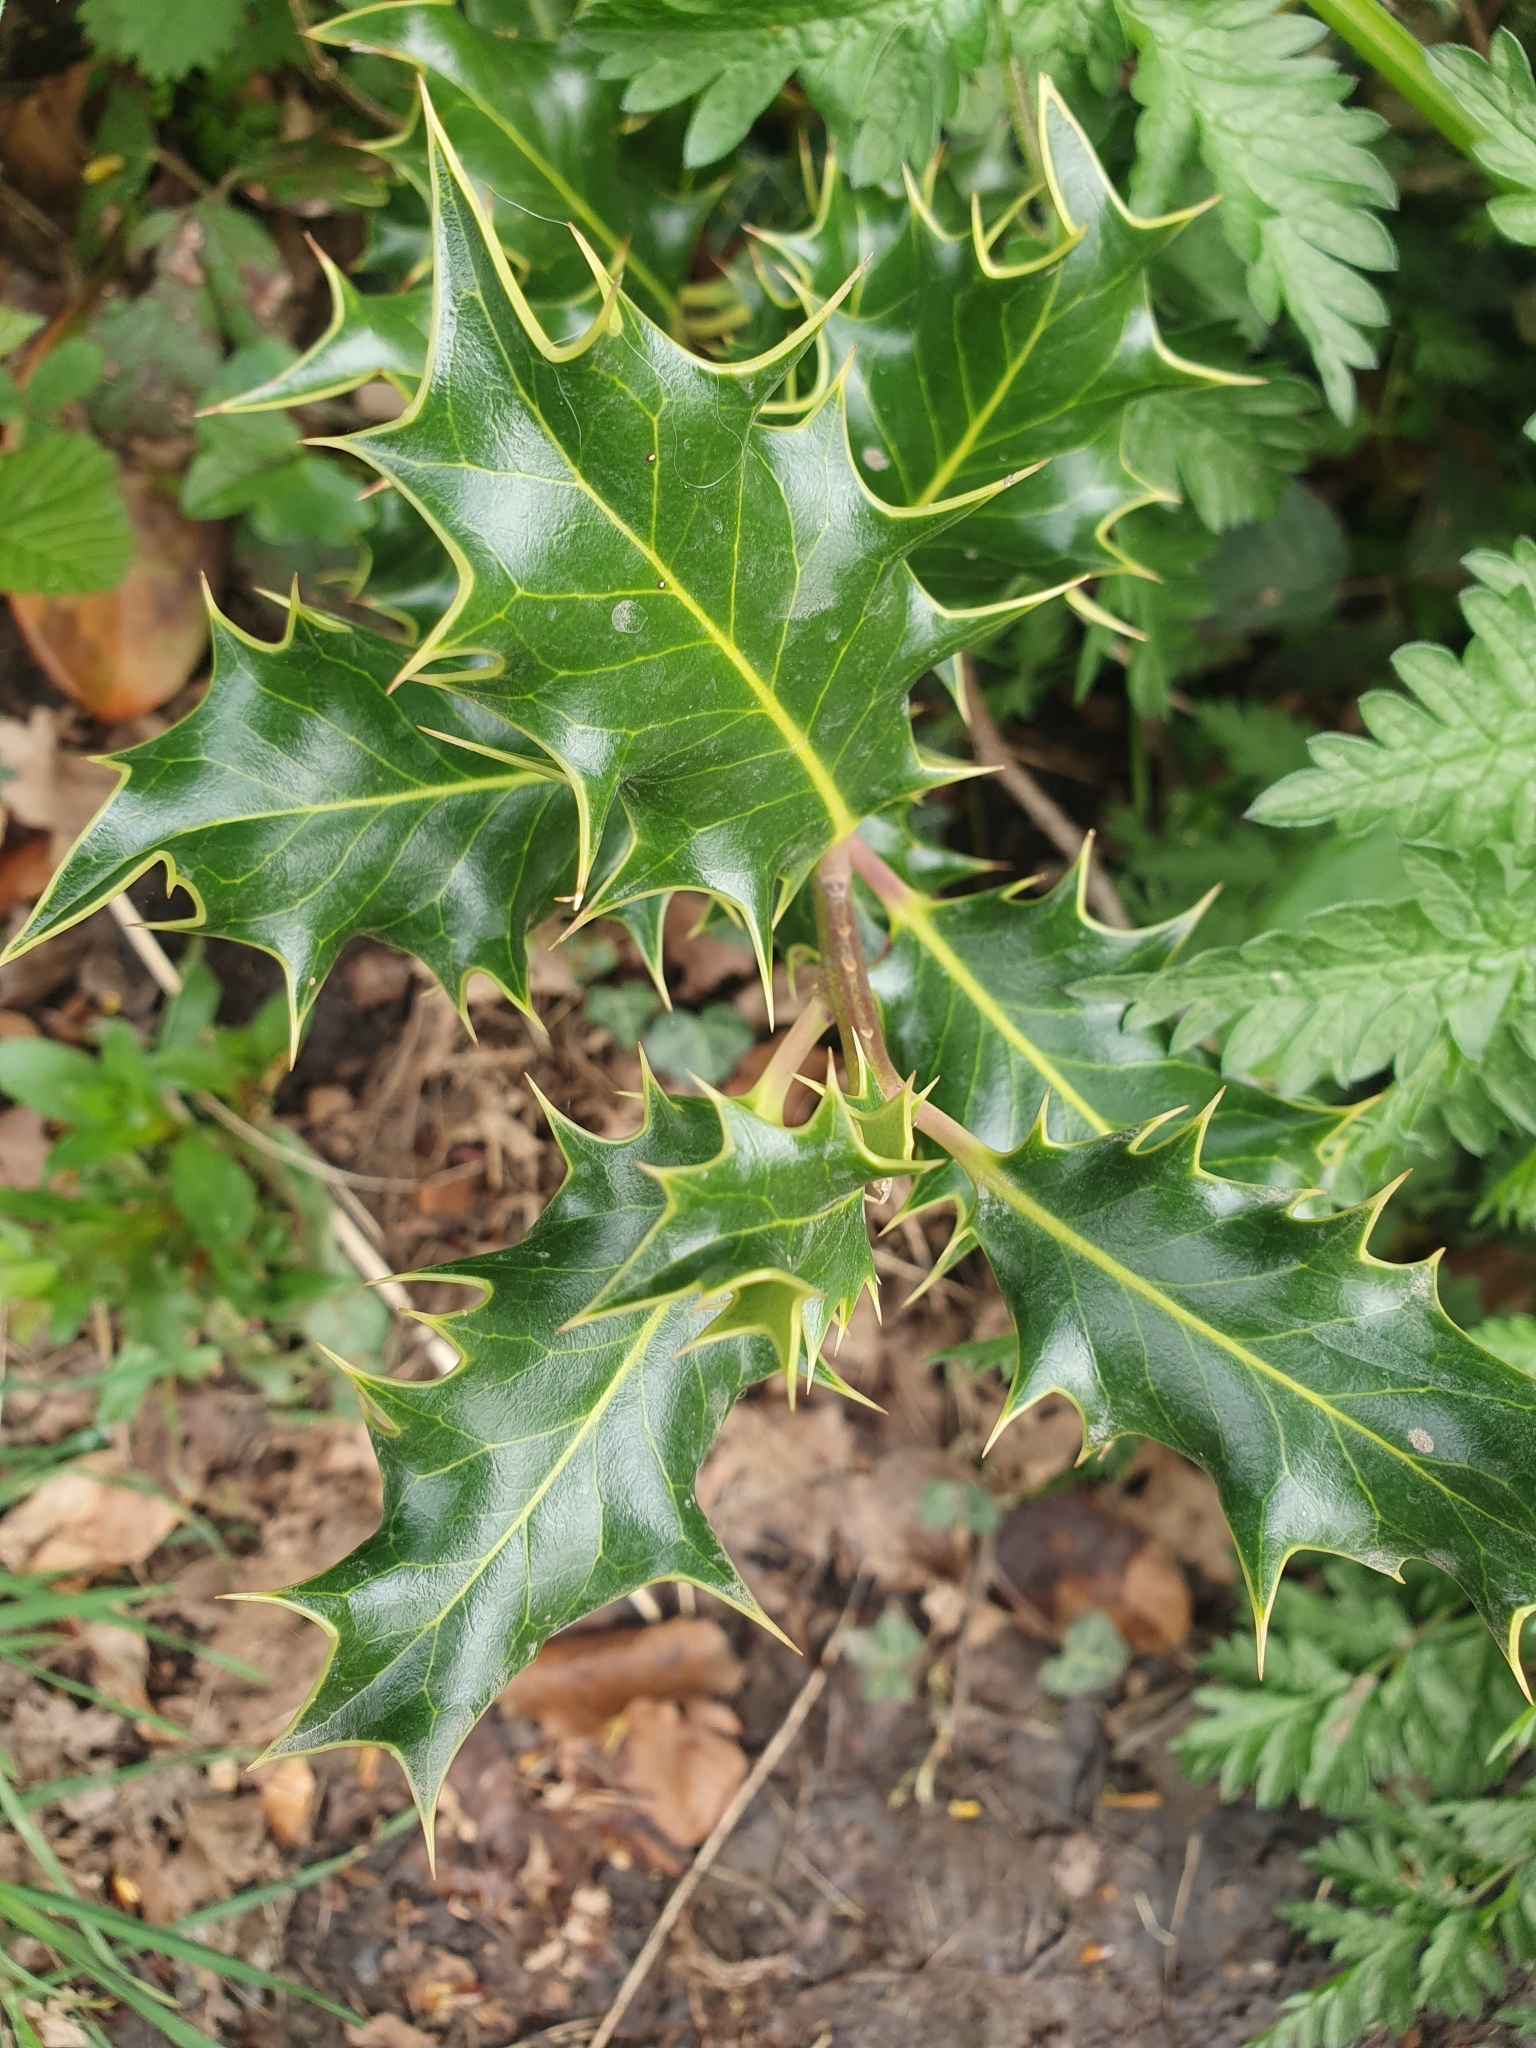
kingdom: Plantae
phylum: Tracheophyta
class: Magnoliopsida
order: Aquifoliales
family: Aquifoliaceae
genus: Ilex
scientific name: Ilex aquifolium
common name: English holly
